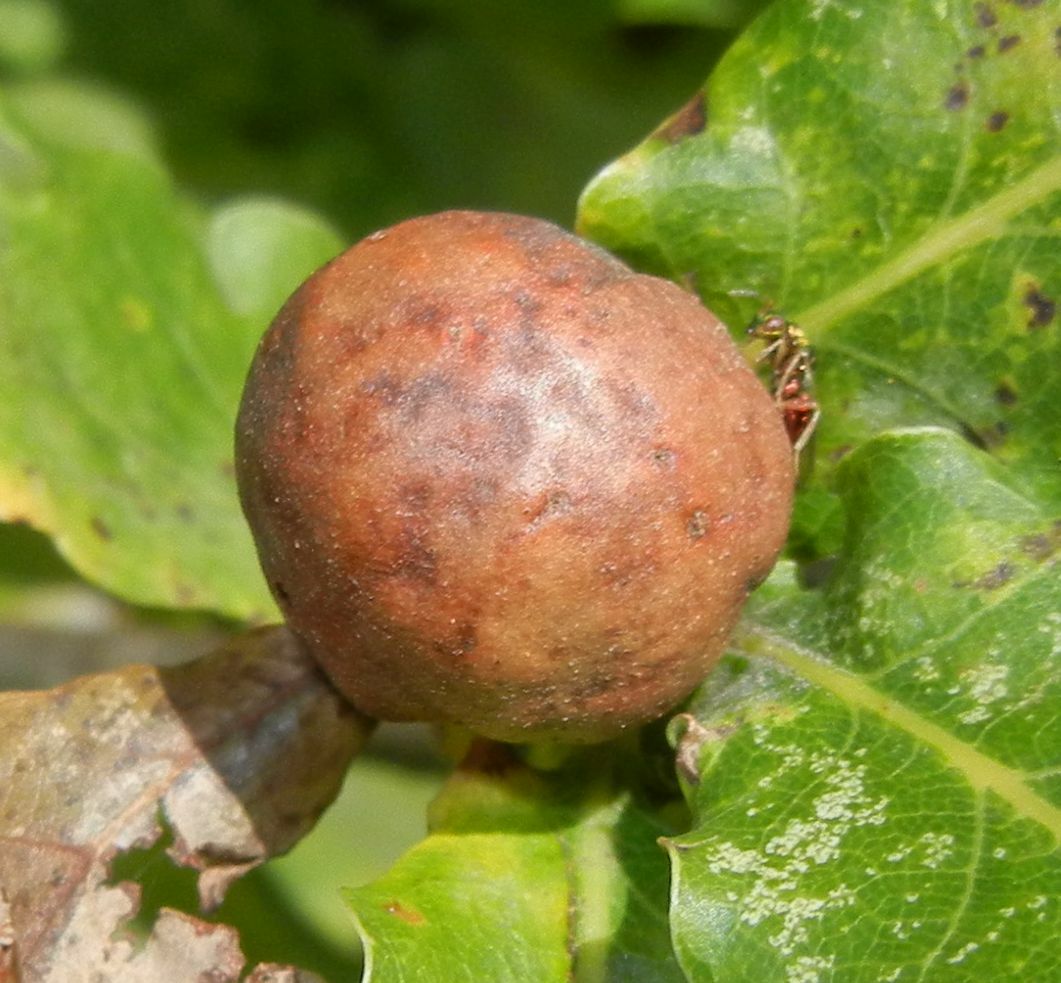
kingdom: Animalia
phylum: Arthropoda
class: Insecta
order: Hymenoptera
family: Cynipidae
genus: Andricus
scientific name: Andricus kollari
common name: Marble gall
